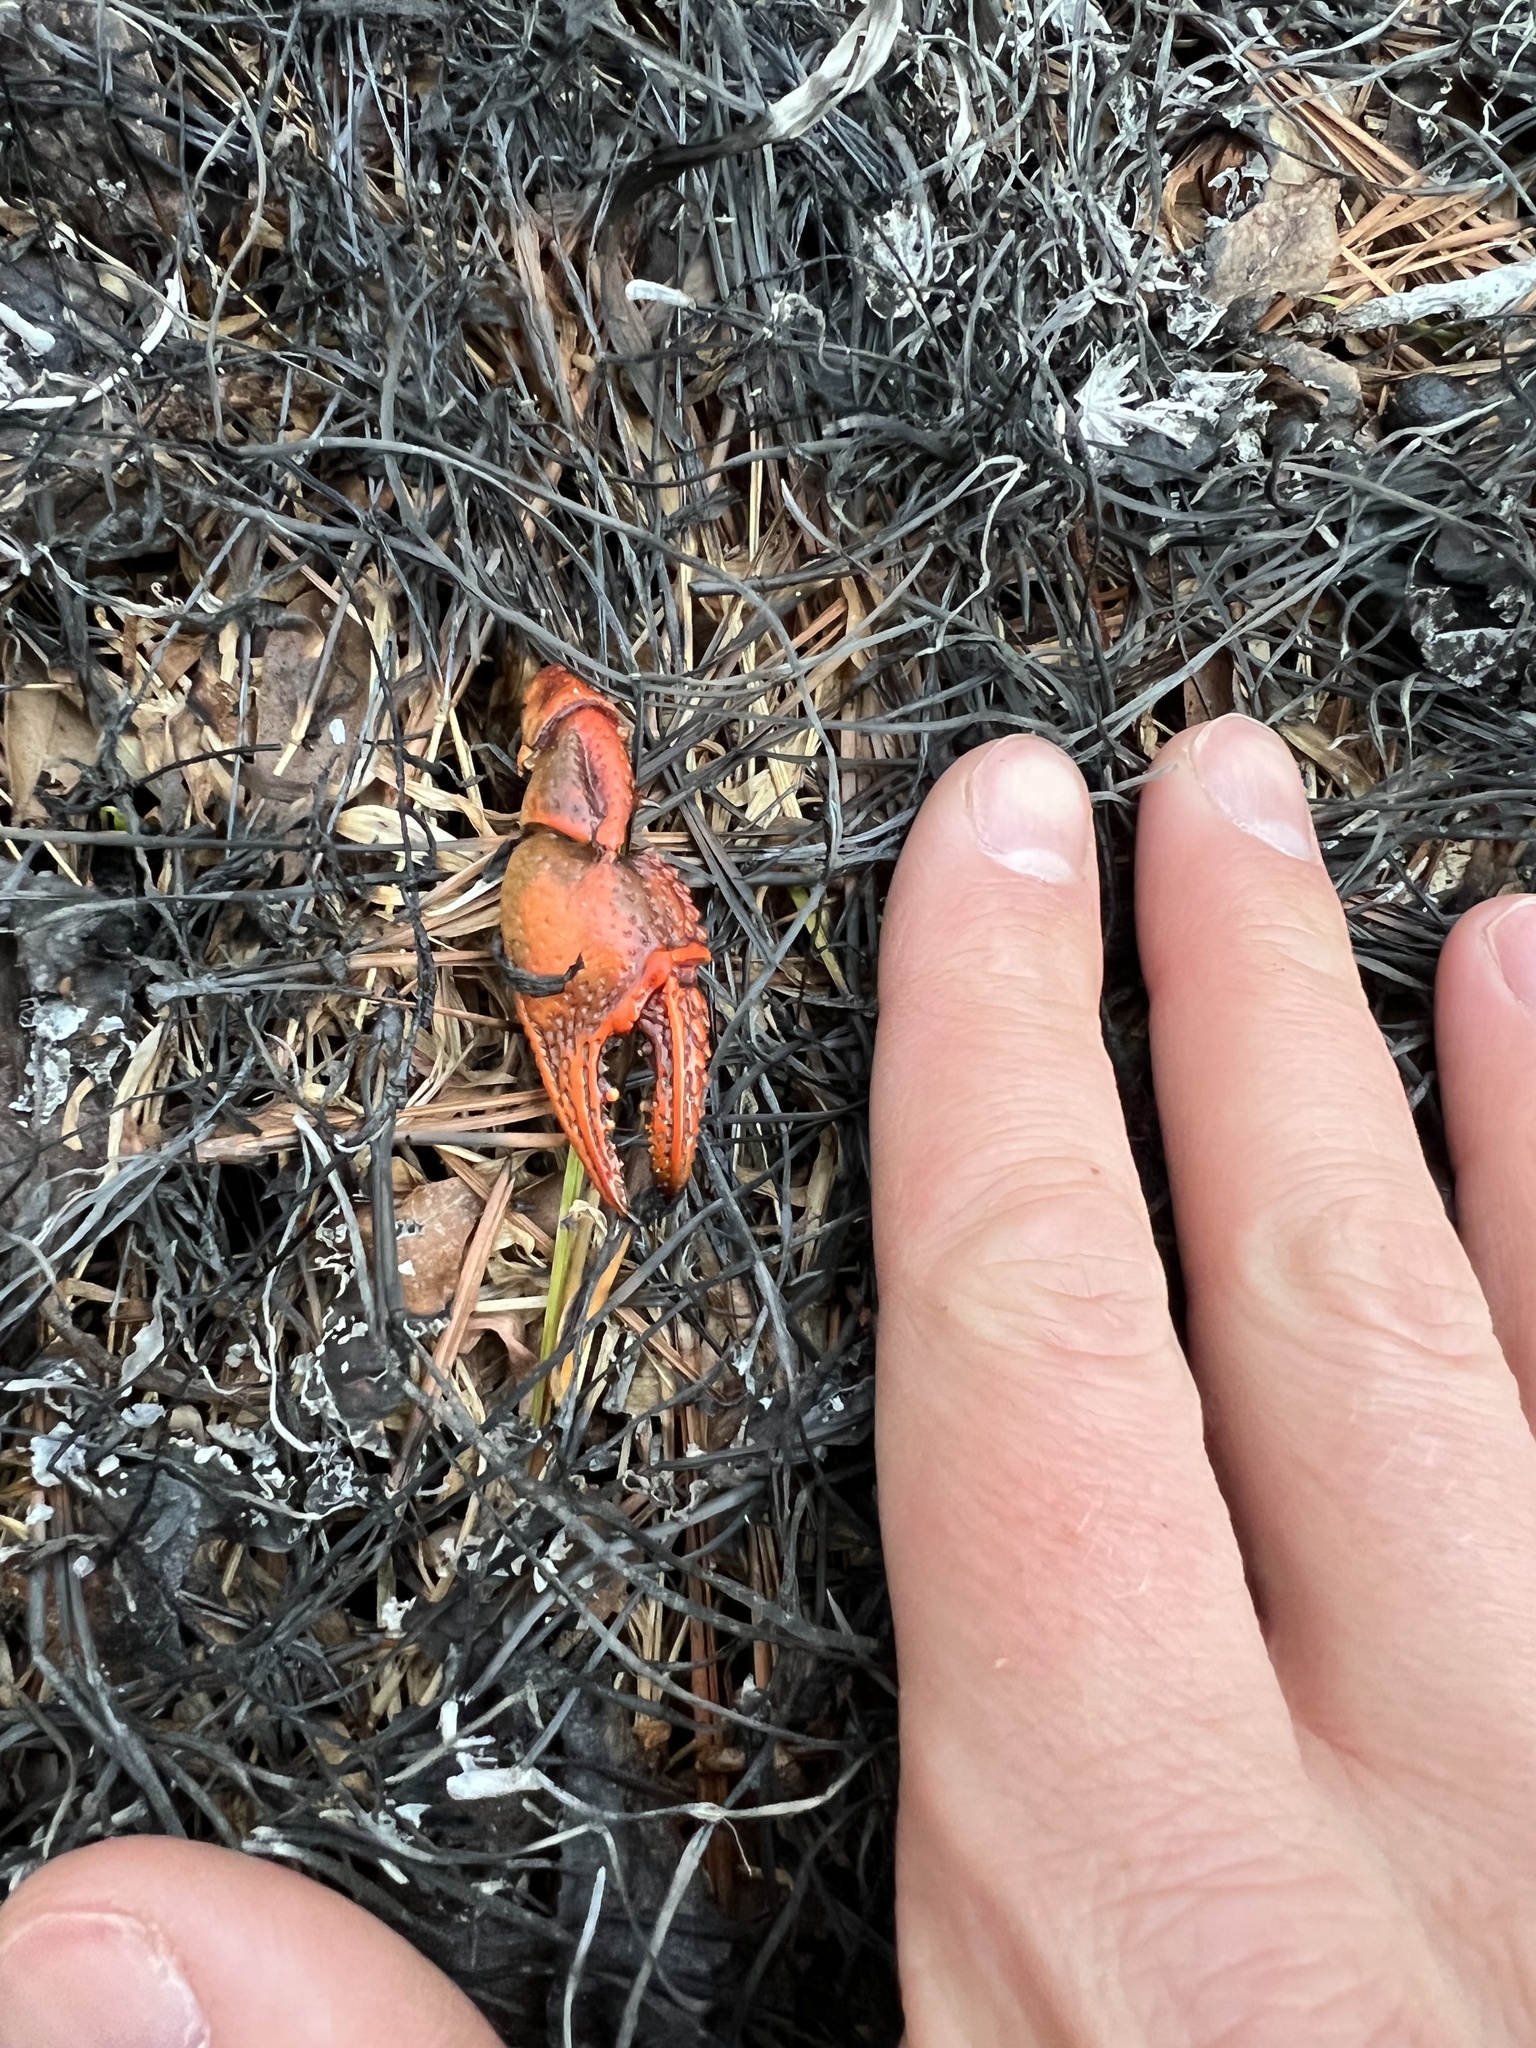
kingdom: Animalia
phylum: Arthropoda
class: Malacostraca
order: Decapoda
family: Cambaridae
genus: Procambarus
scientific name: Procambarus clarkii
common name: Red swamp crayfish
